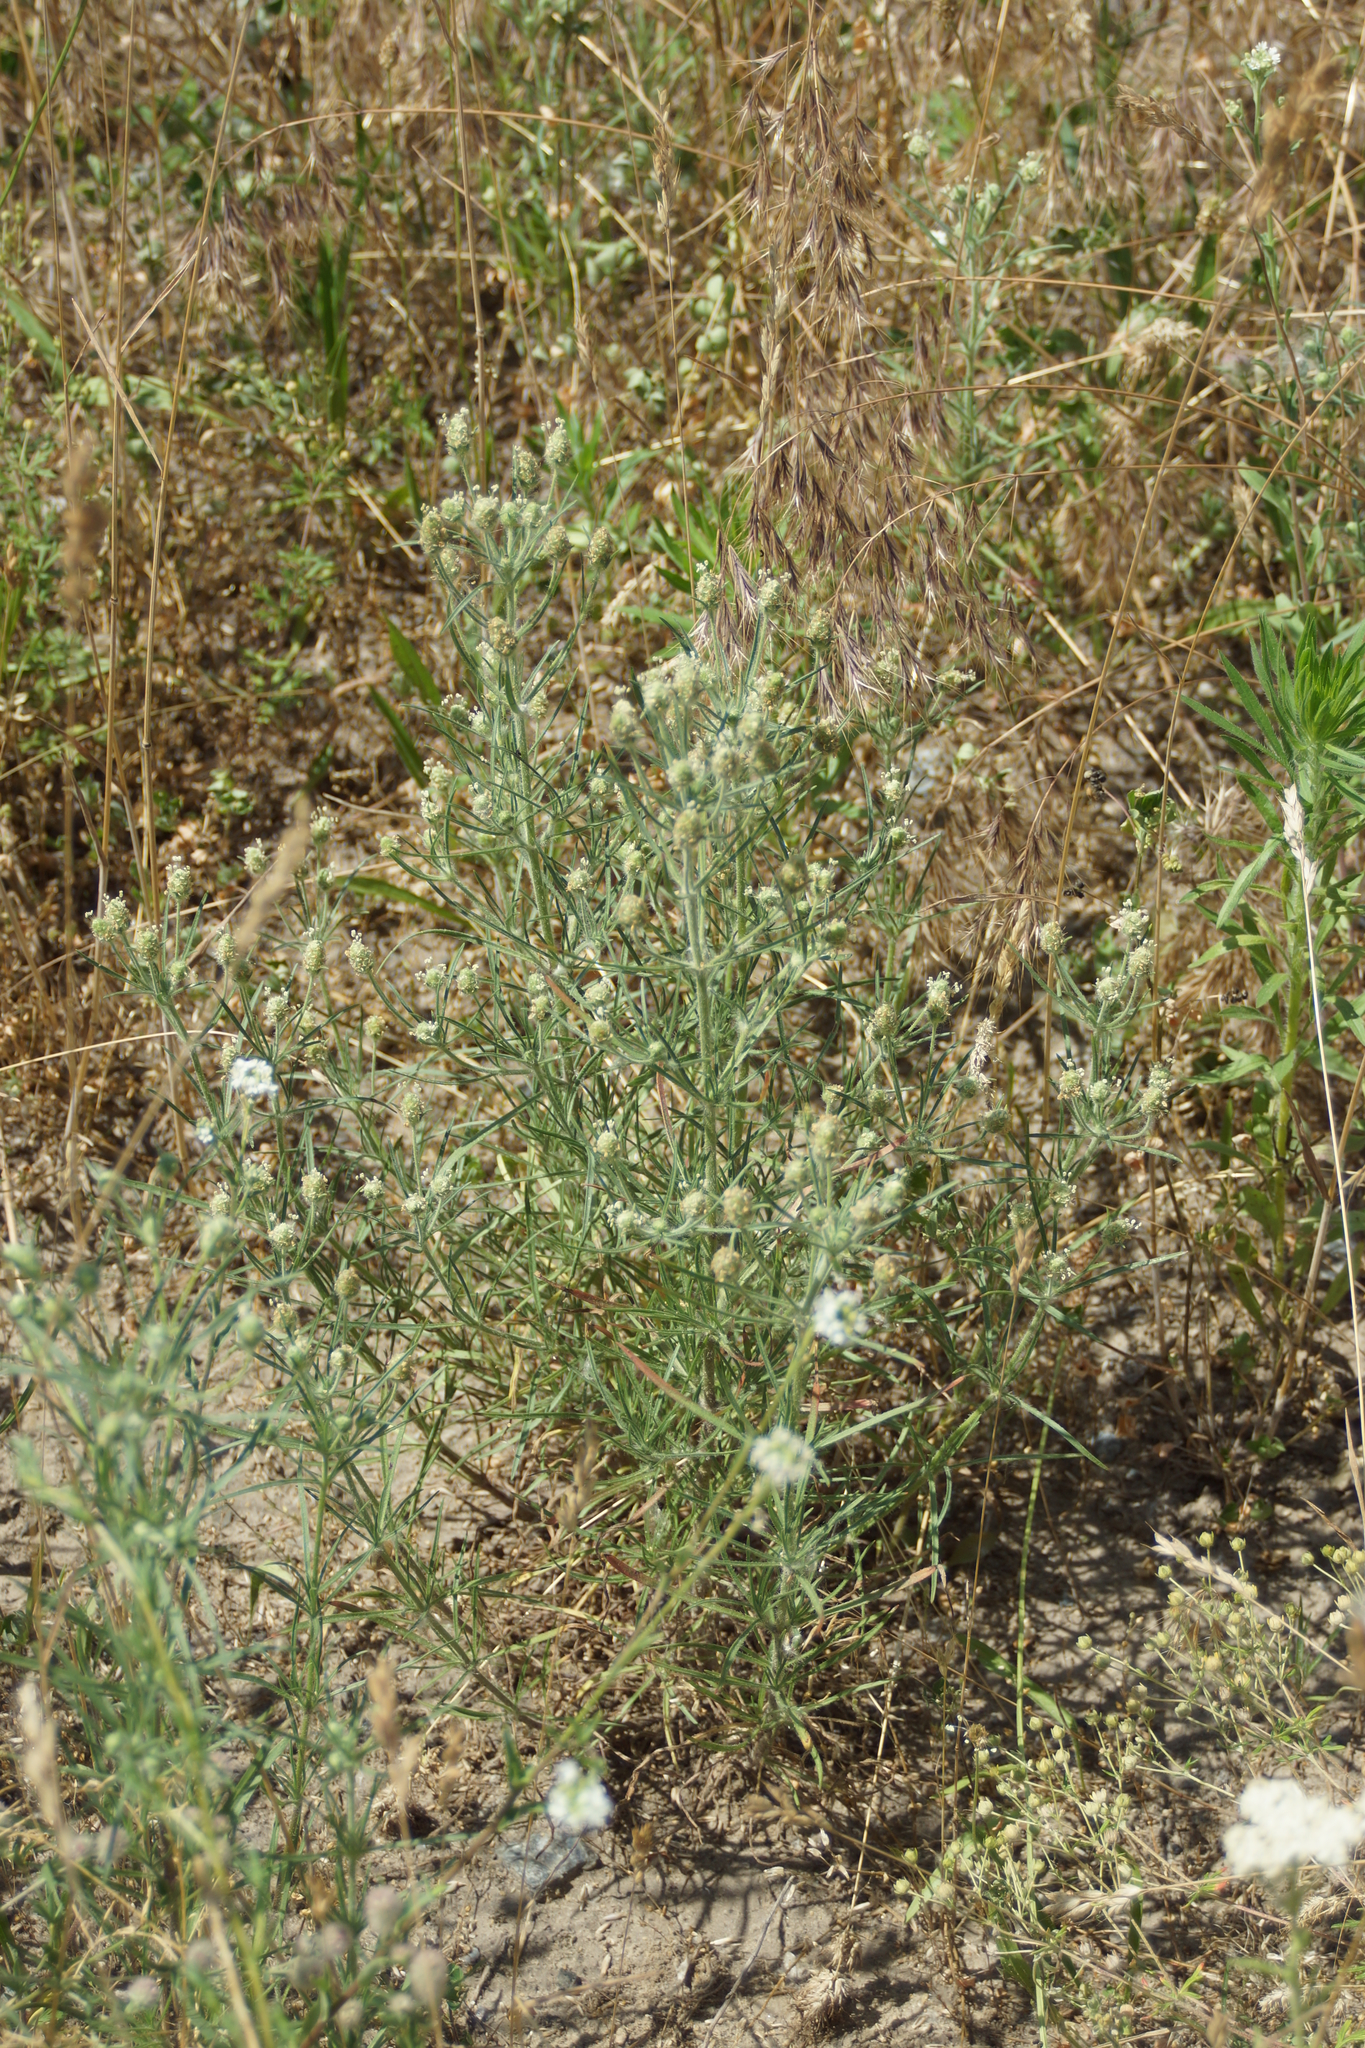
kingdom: Plantae
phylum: Tracheophyta
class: Magnoliopsida
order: Lamiales
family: Plantaginaceae
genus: Plantago
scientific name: Plantago arenaria
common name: Branched plantain
